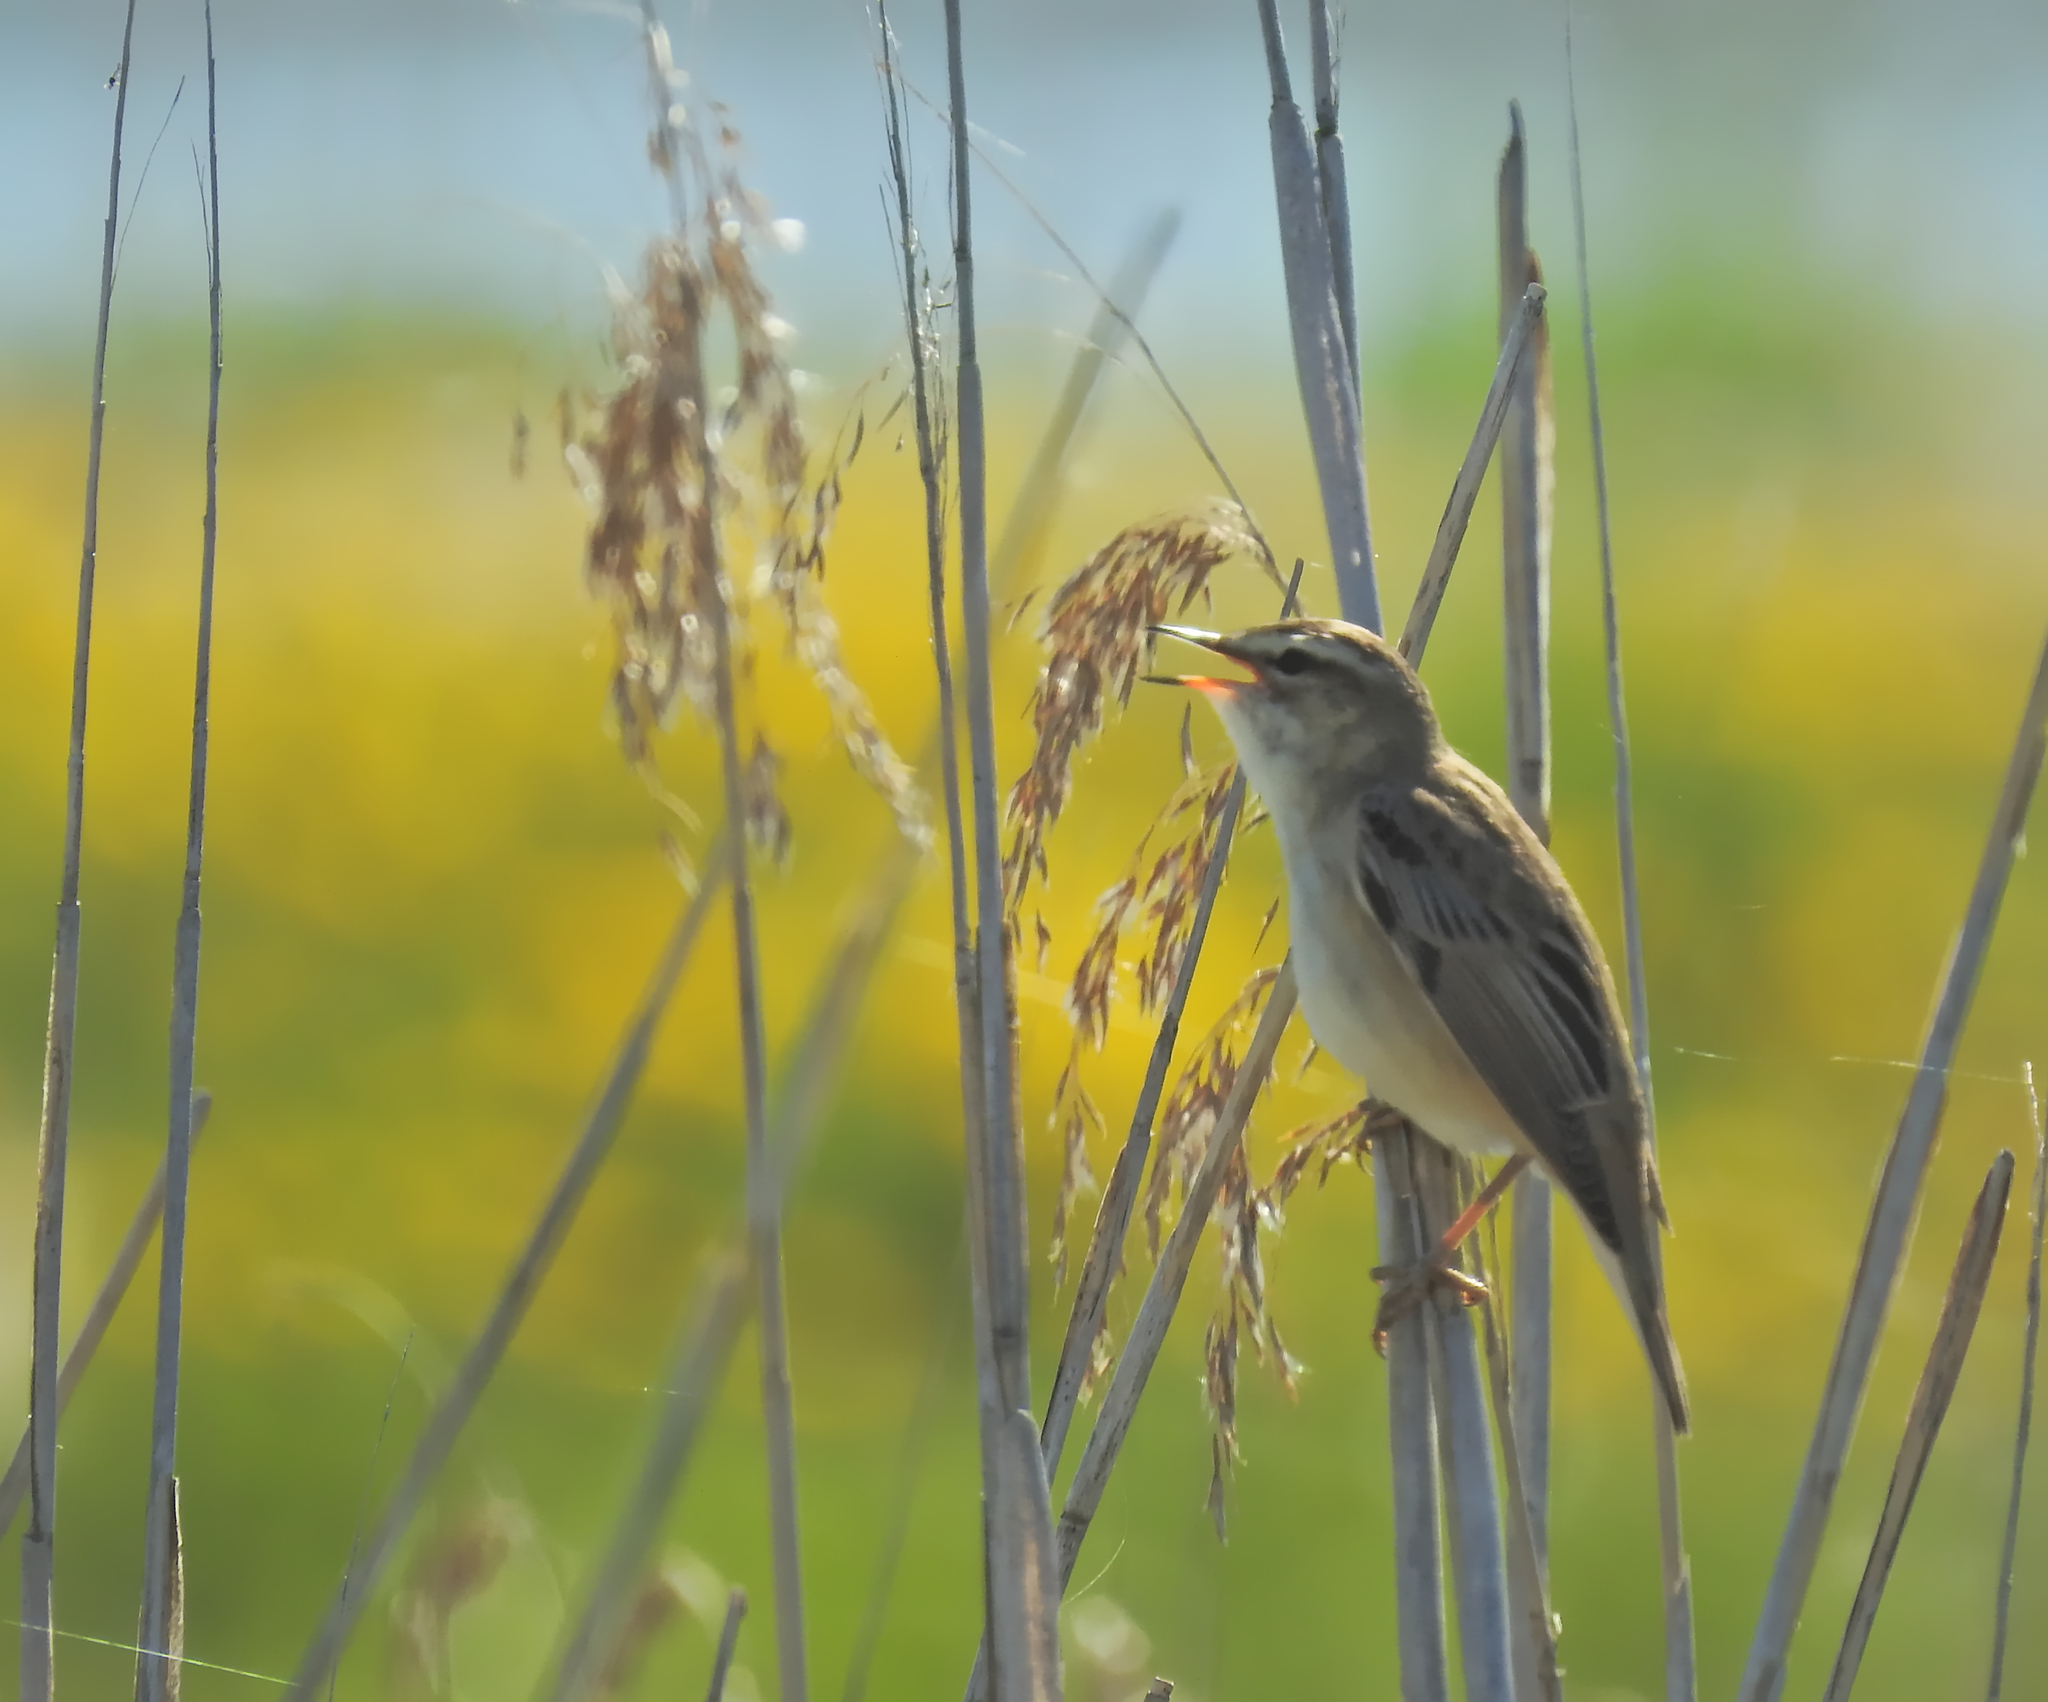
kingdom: Animalia
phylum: Chordata
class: Aves
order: Passeriformes
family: Acrocephalidae
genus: Acrocephalus
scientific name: Acrocephalus schoenobaenus
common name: Sedge warbler
